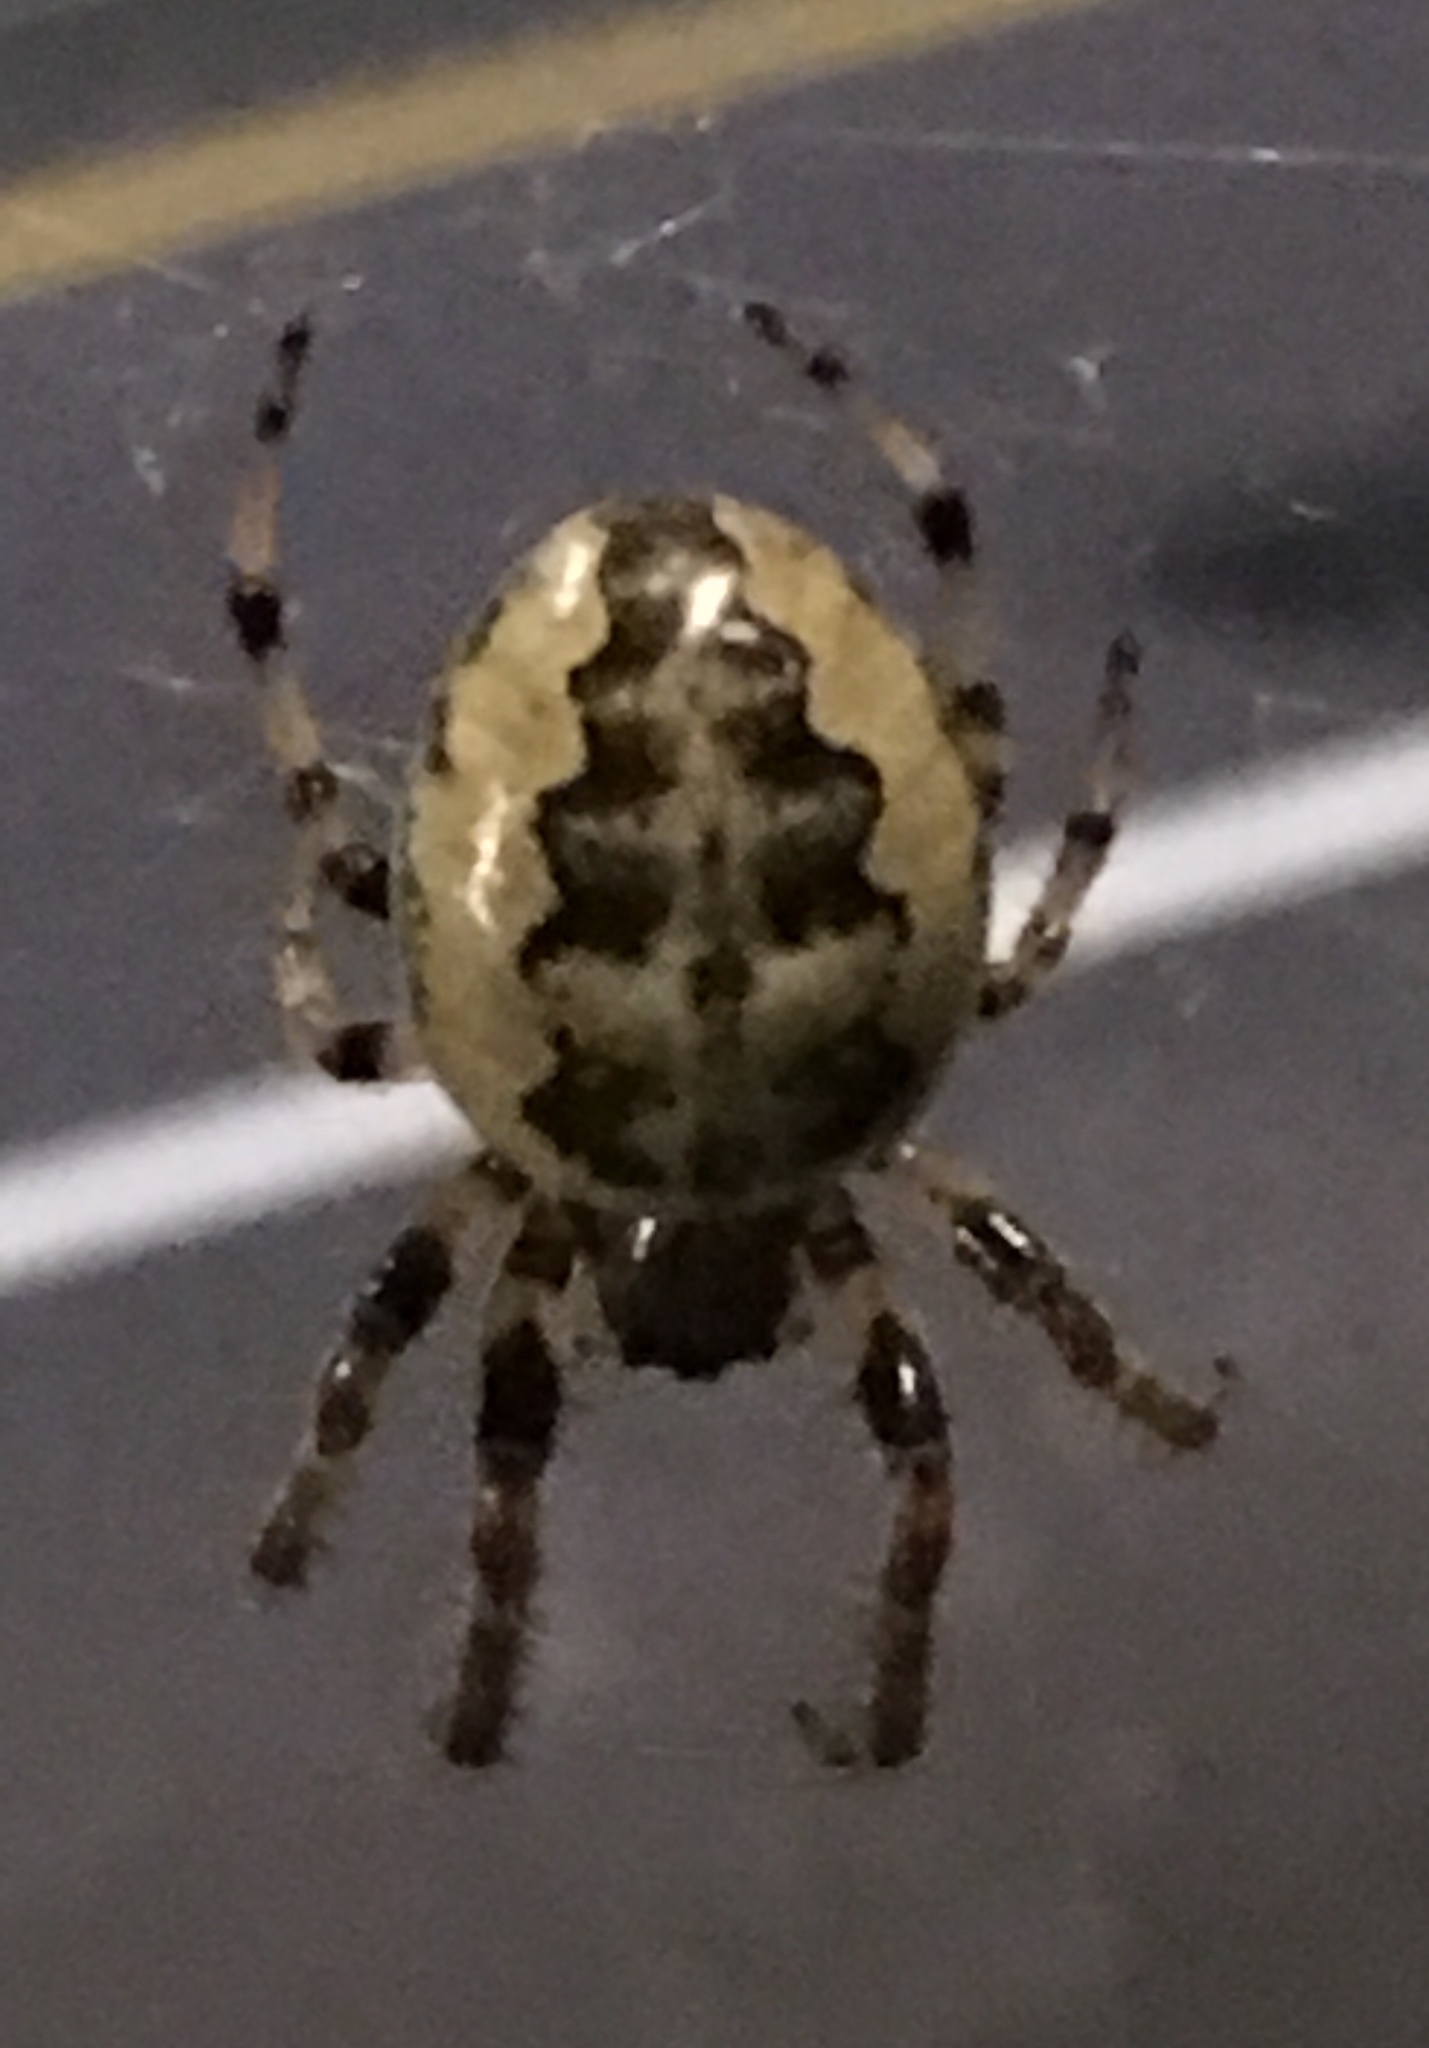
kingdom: Animalia
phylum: Arthropoda
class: Arachnida
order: Araneae
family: Araneidae
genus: Larinioides
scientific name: Larinioides cornutus
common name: Furrow orbweaver
